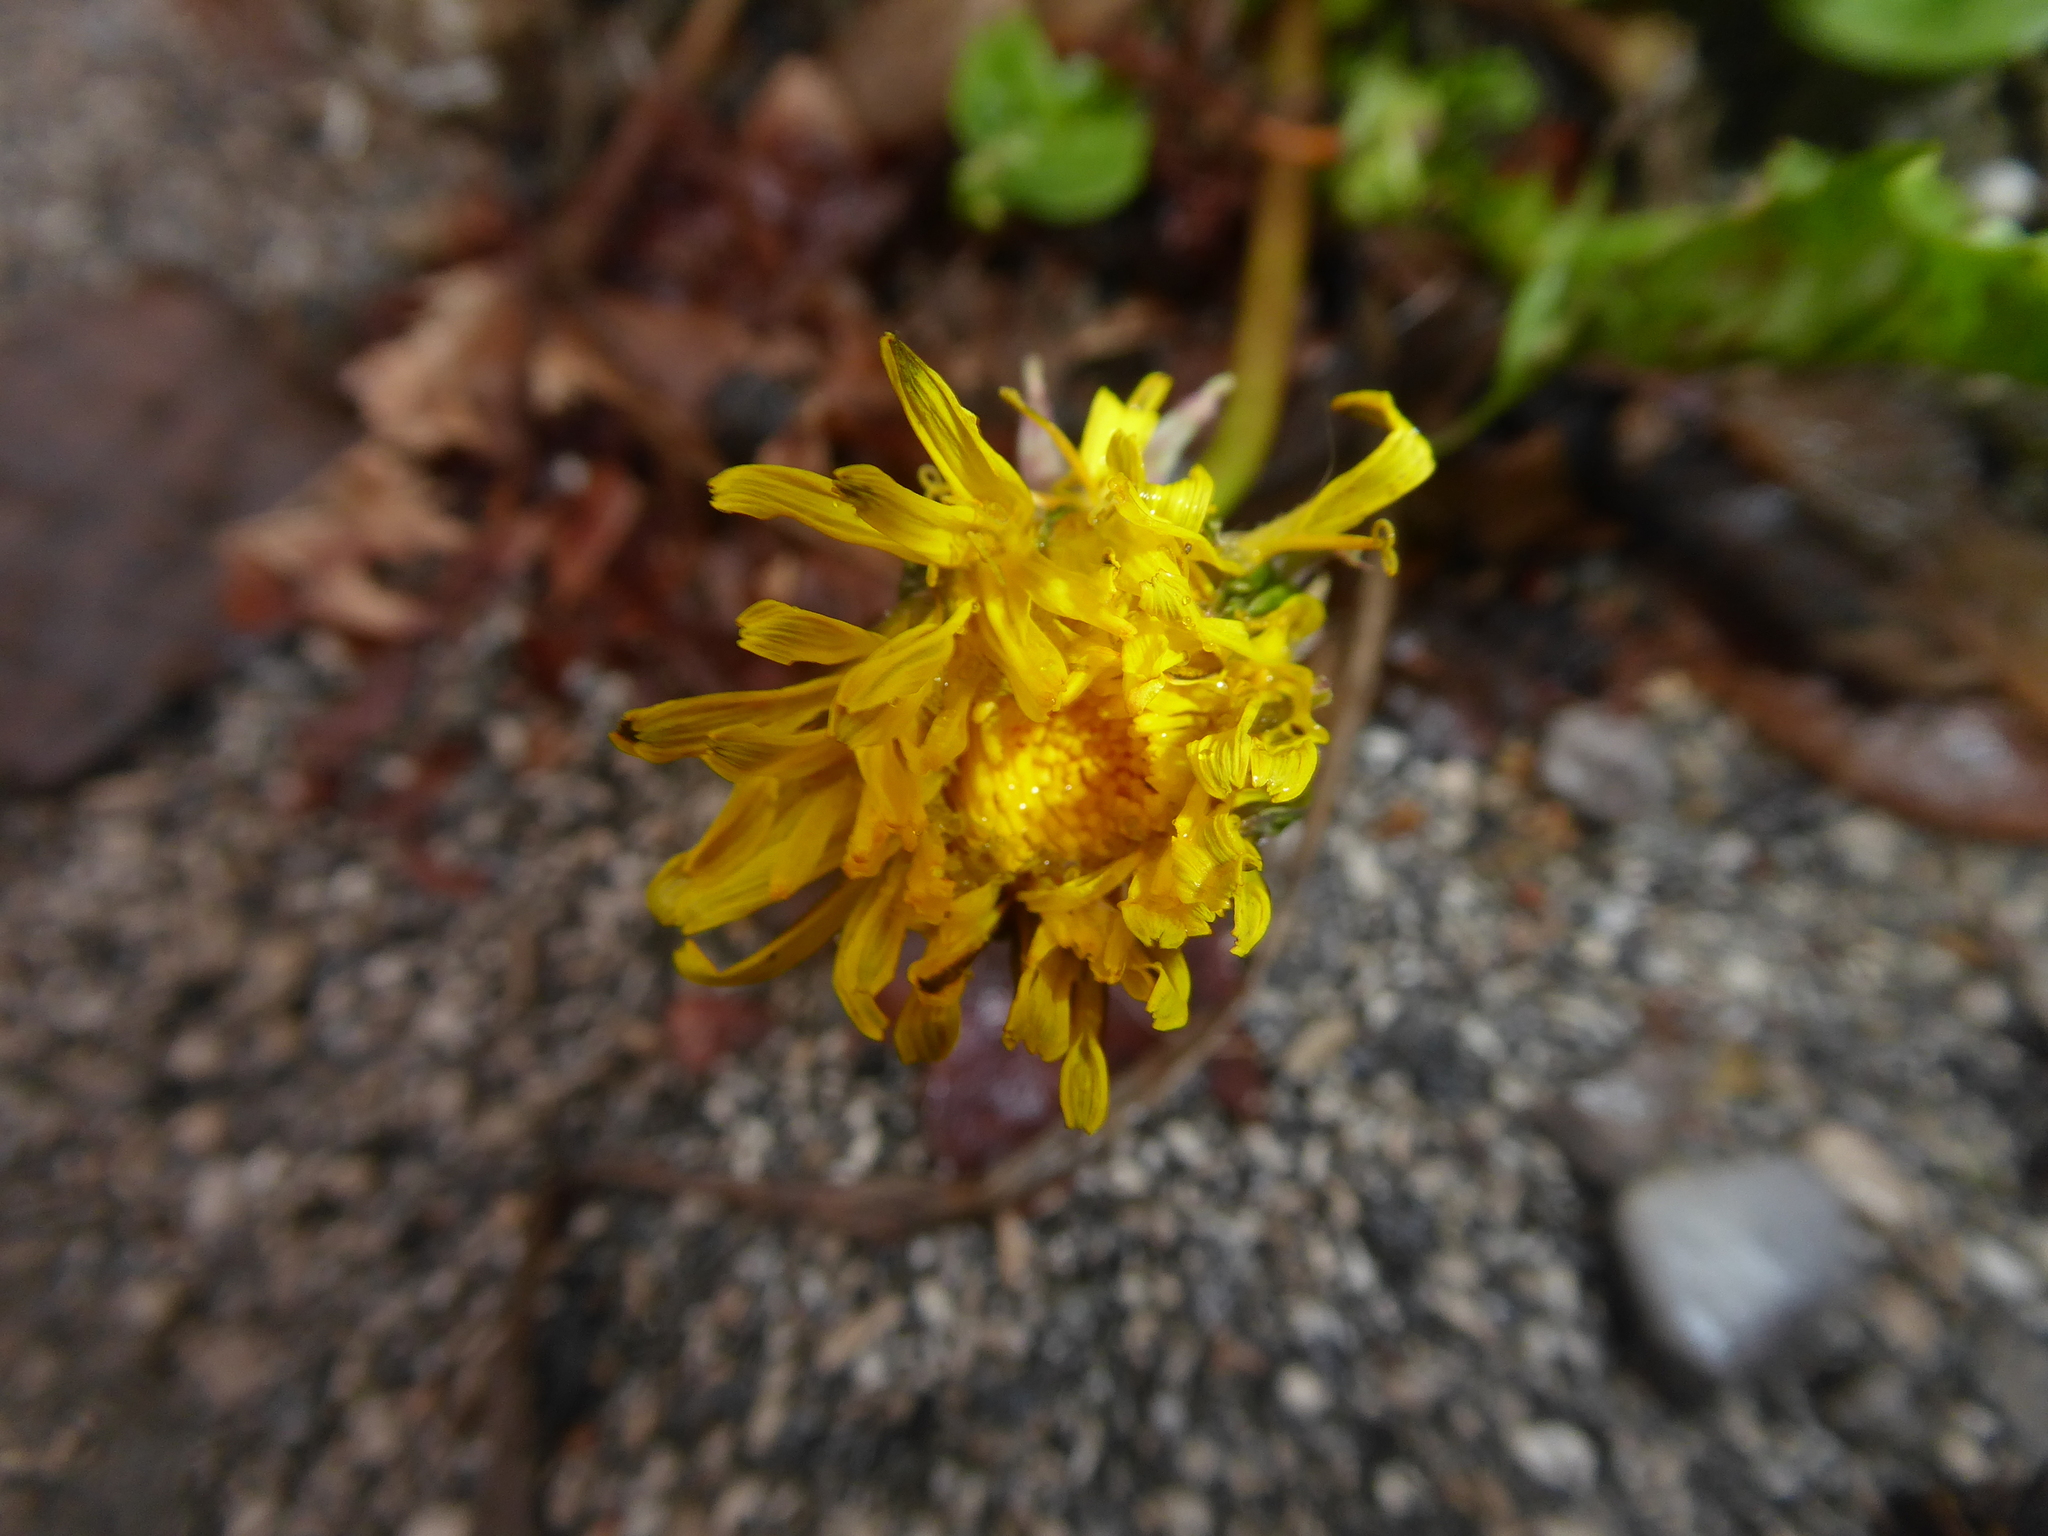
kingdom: Plantae
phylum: Tracheophyta
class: Magnoliopsida
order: Asterales
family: Asteraceae
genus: Taraxacum
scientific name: Taraxacum
